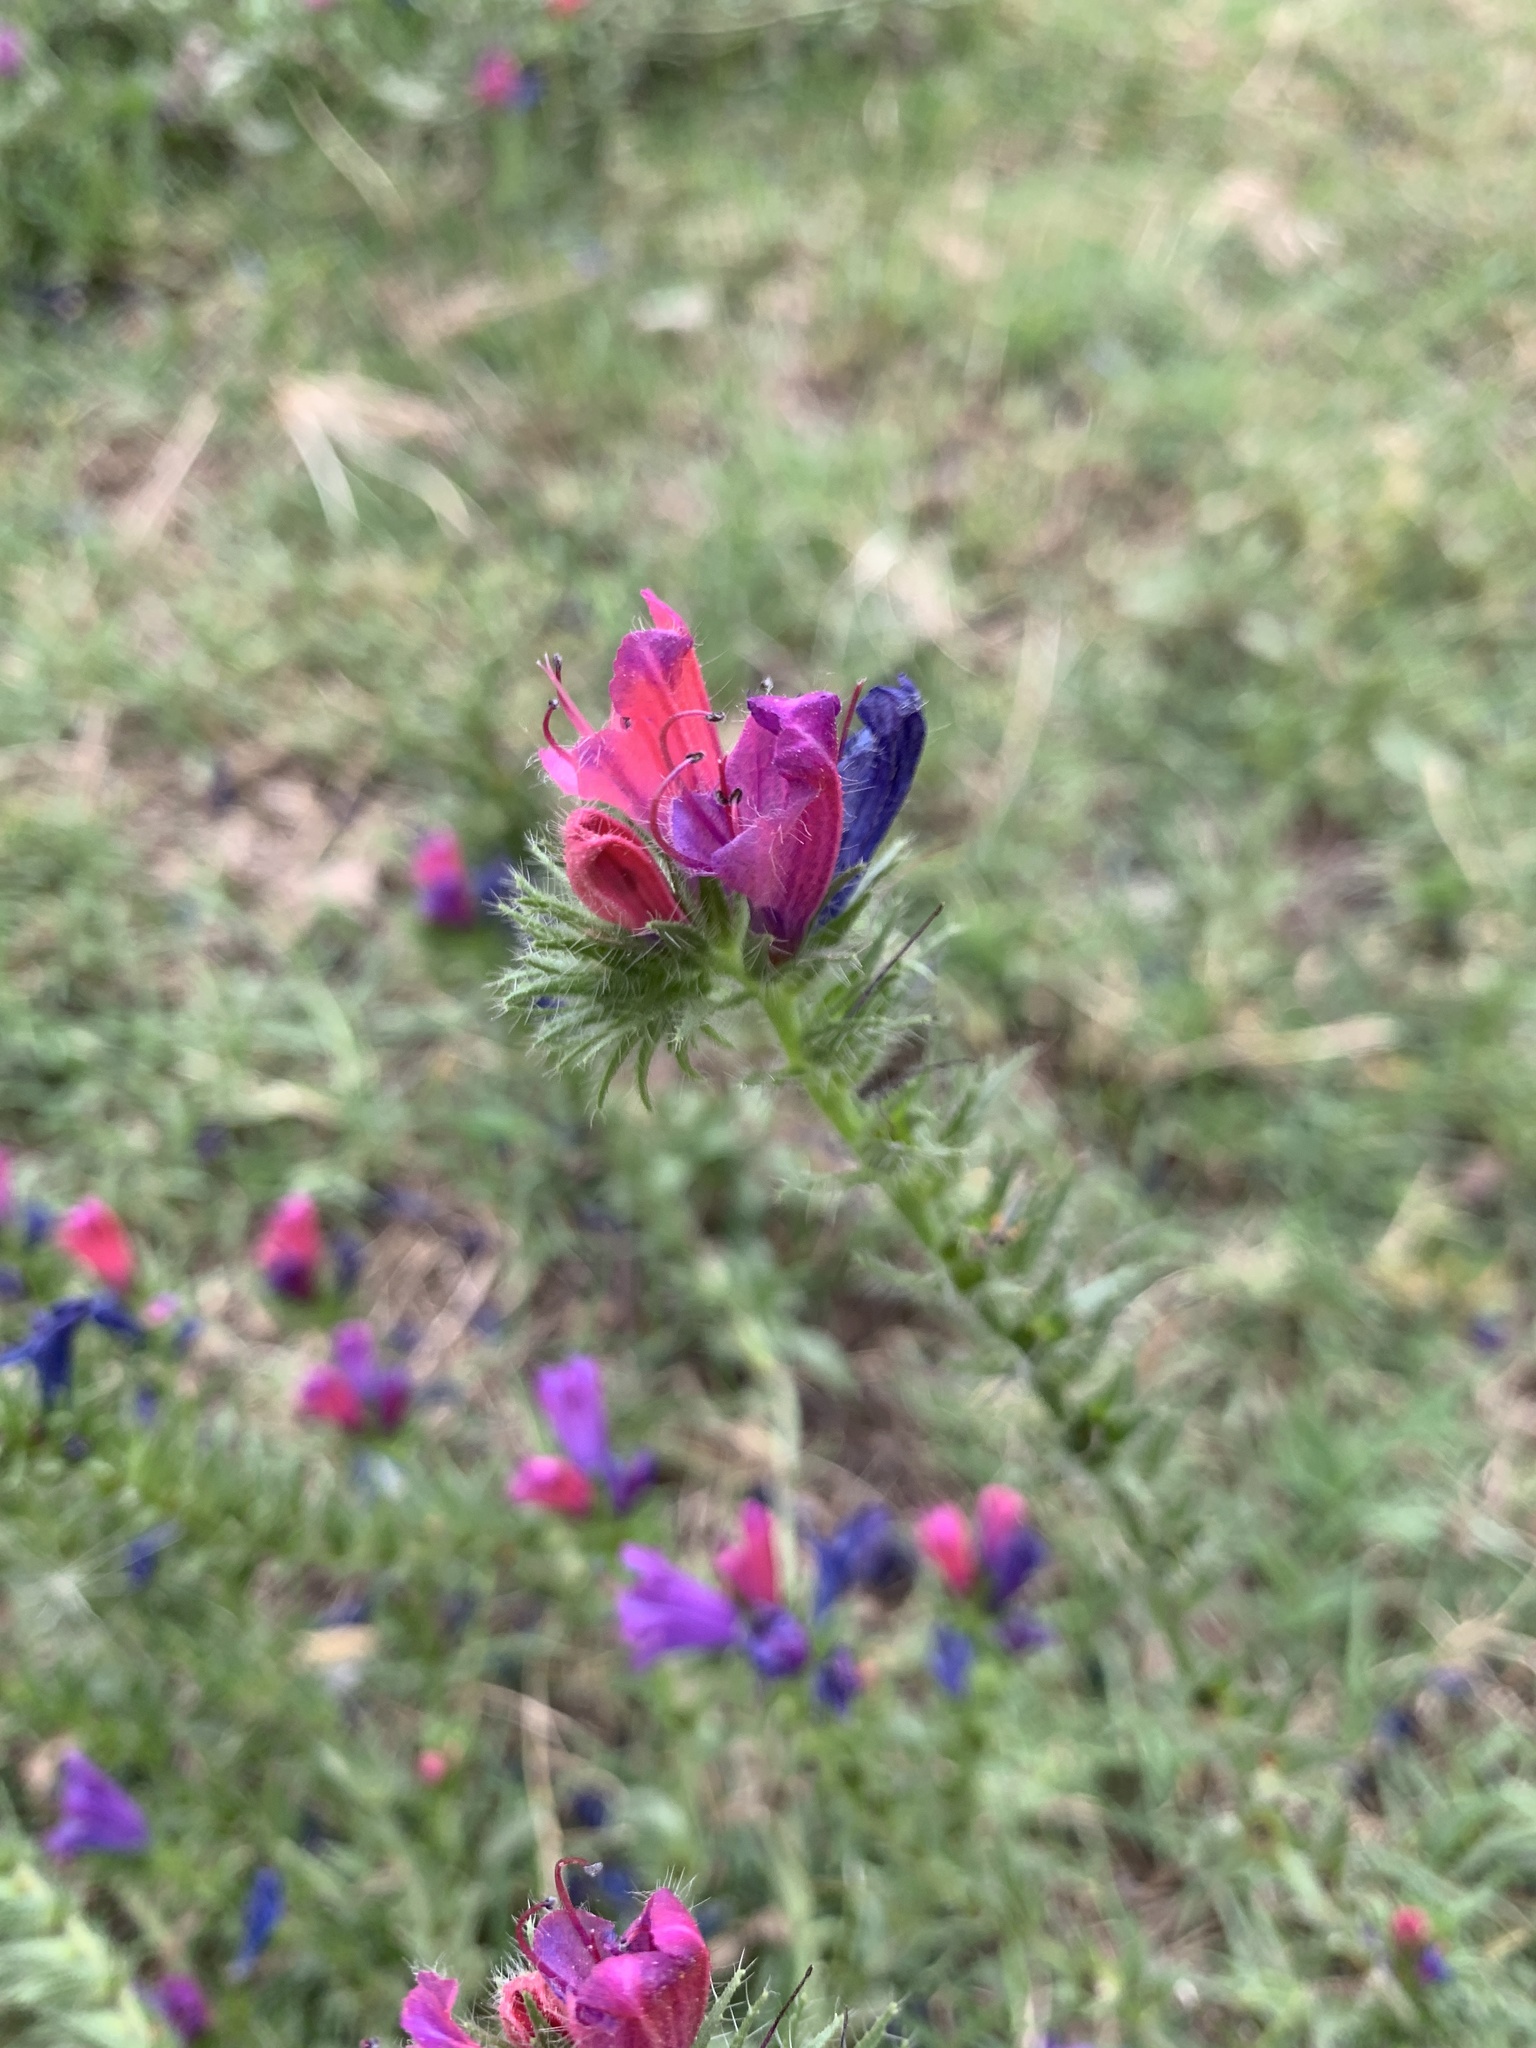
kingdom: Plantae
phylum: Tracheophyta
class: Magnoliopsida
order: Boraginales
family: Boraginaceae
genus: Echium
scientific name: Echium plantagineum
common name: Purple viper's-bugloss
